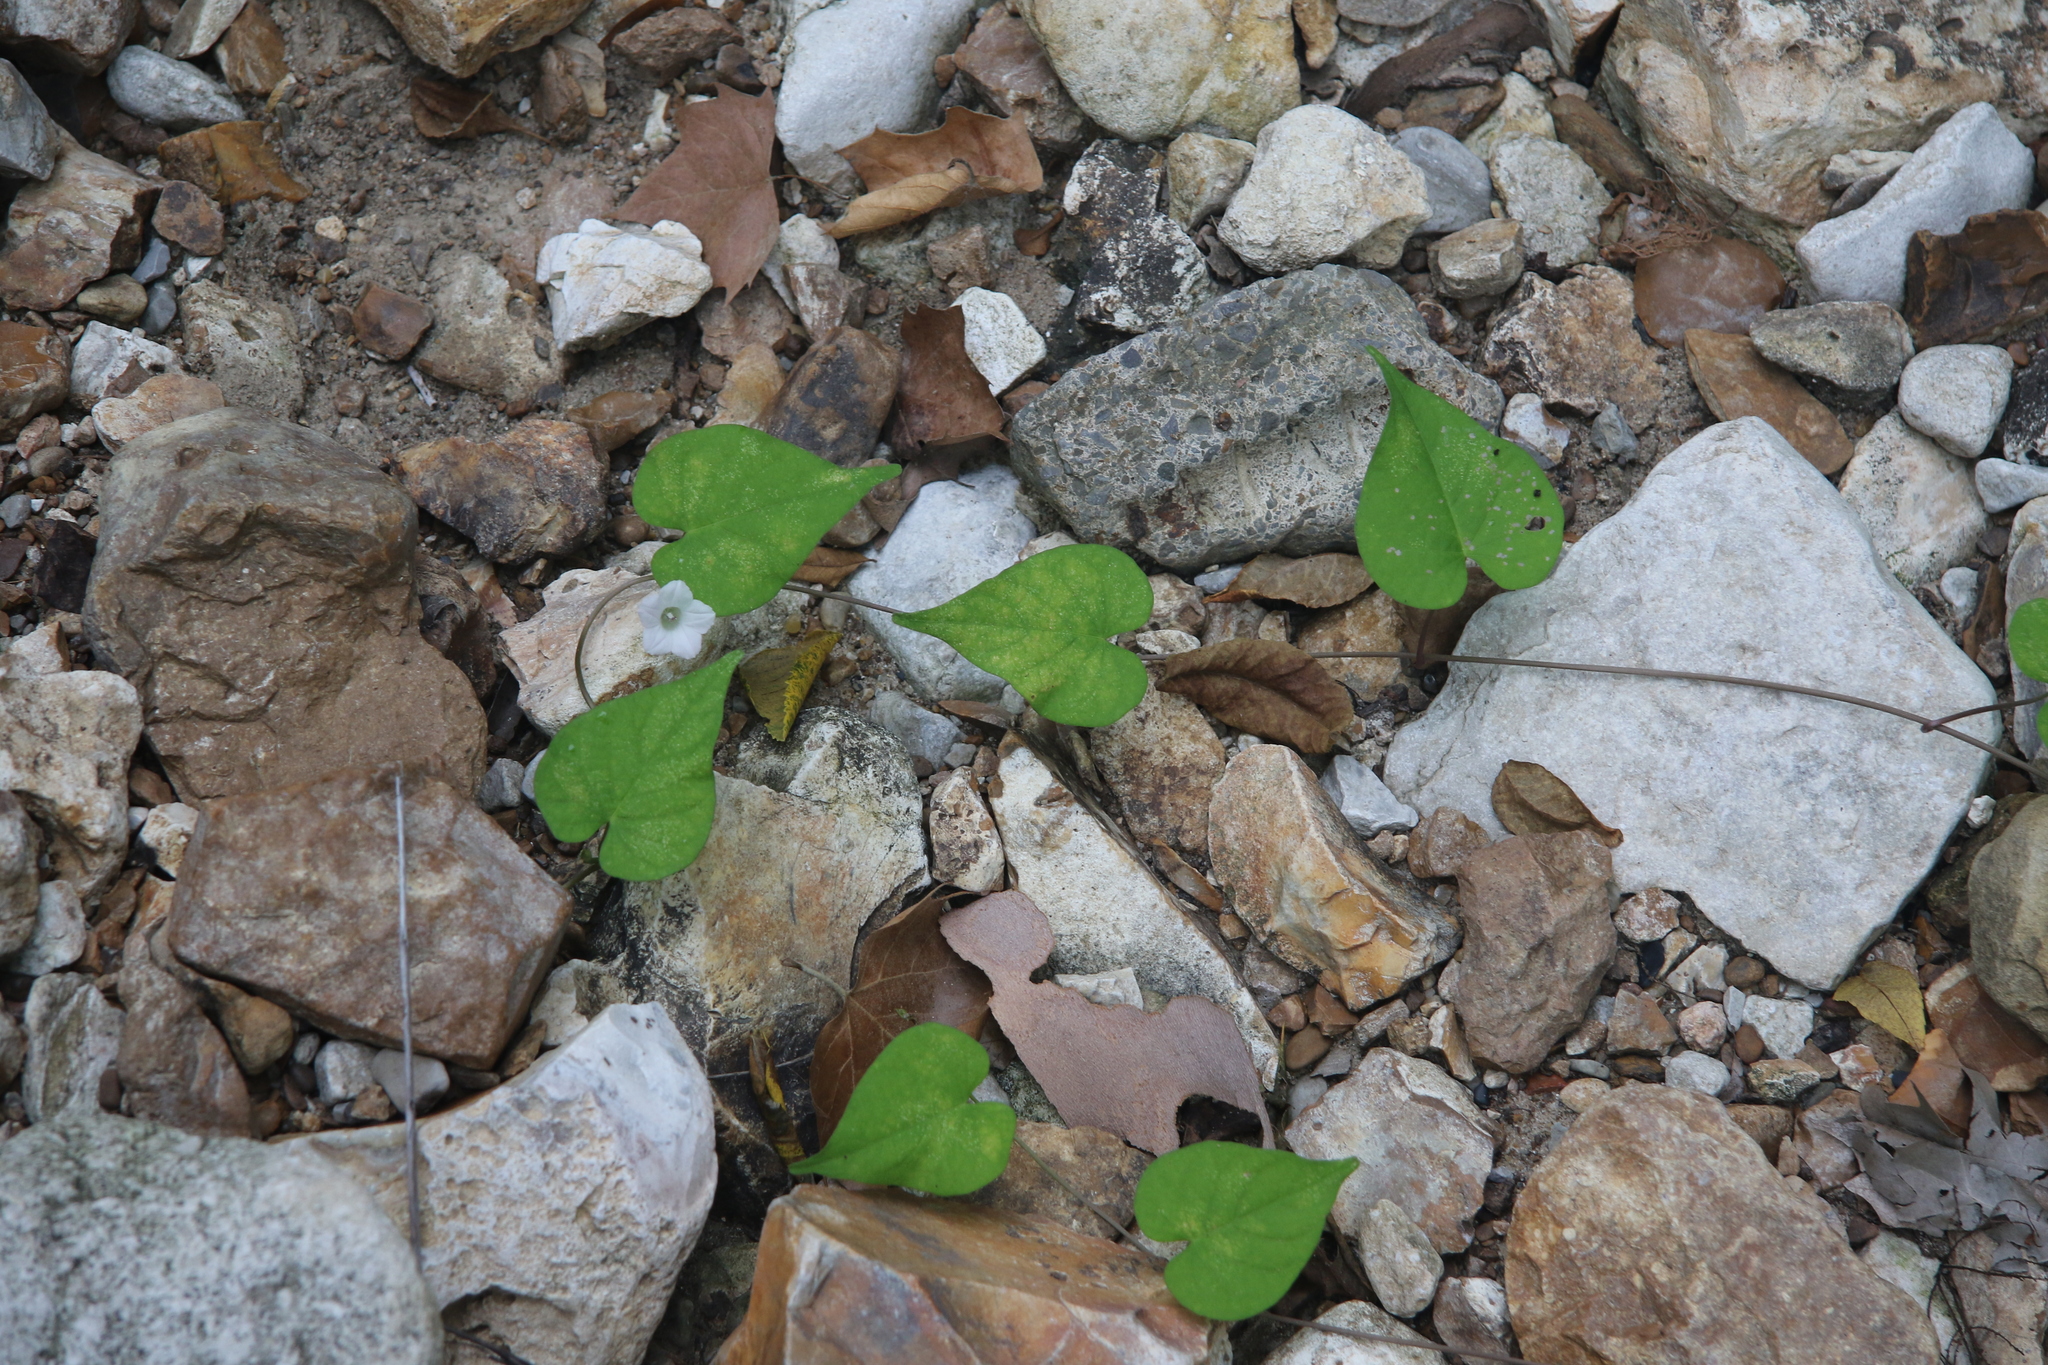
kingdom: Plantae
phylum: Tracheophyta
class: Magnoliopsida
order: Solanales
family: Convolvulaceae
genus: Ipomoea
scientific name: Ipomoea lacunosa
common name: White morning-glory
